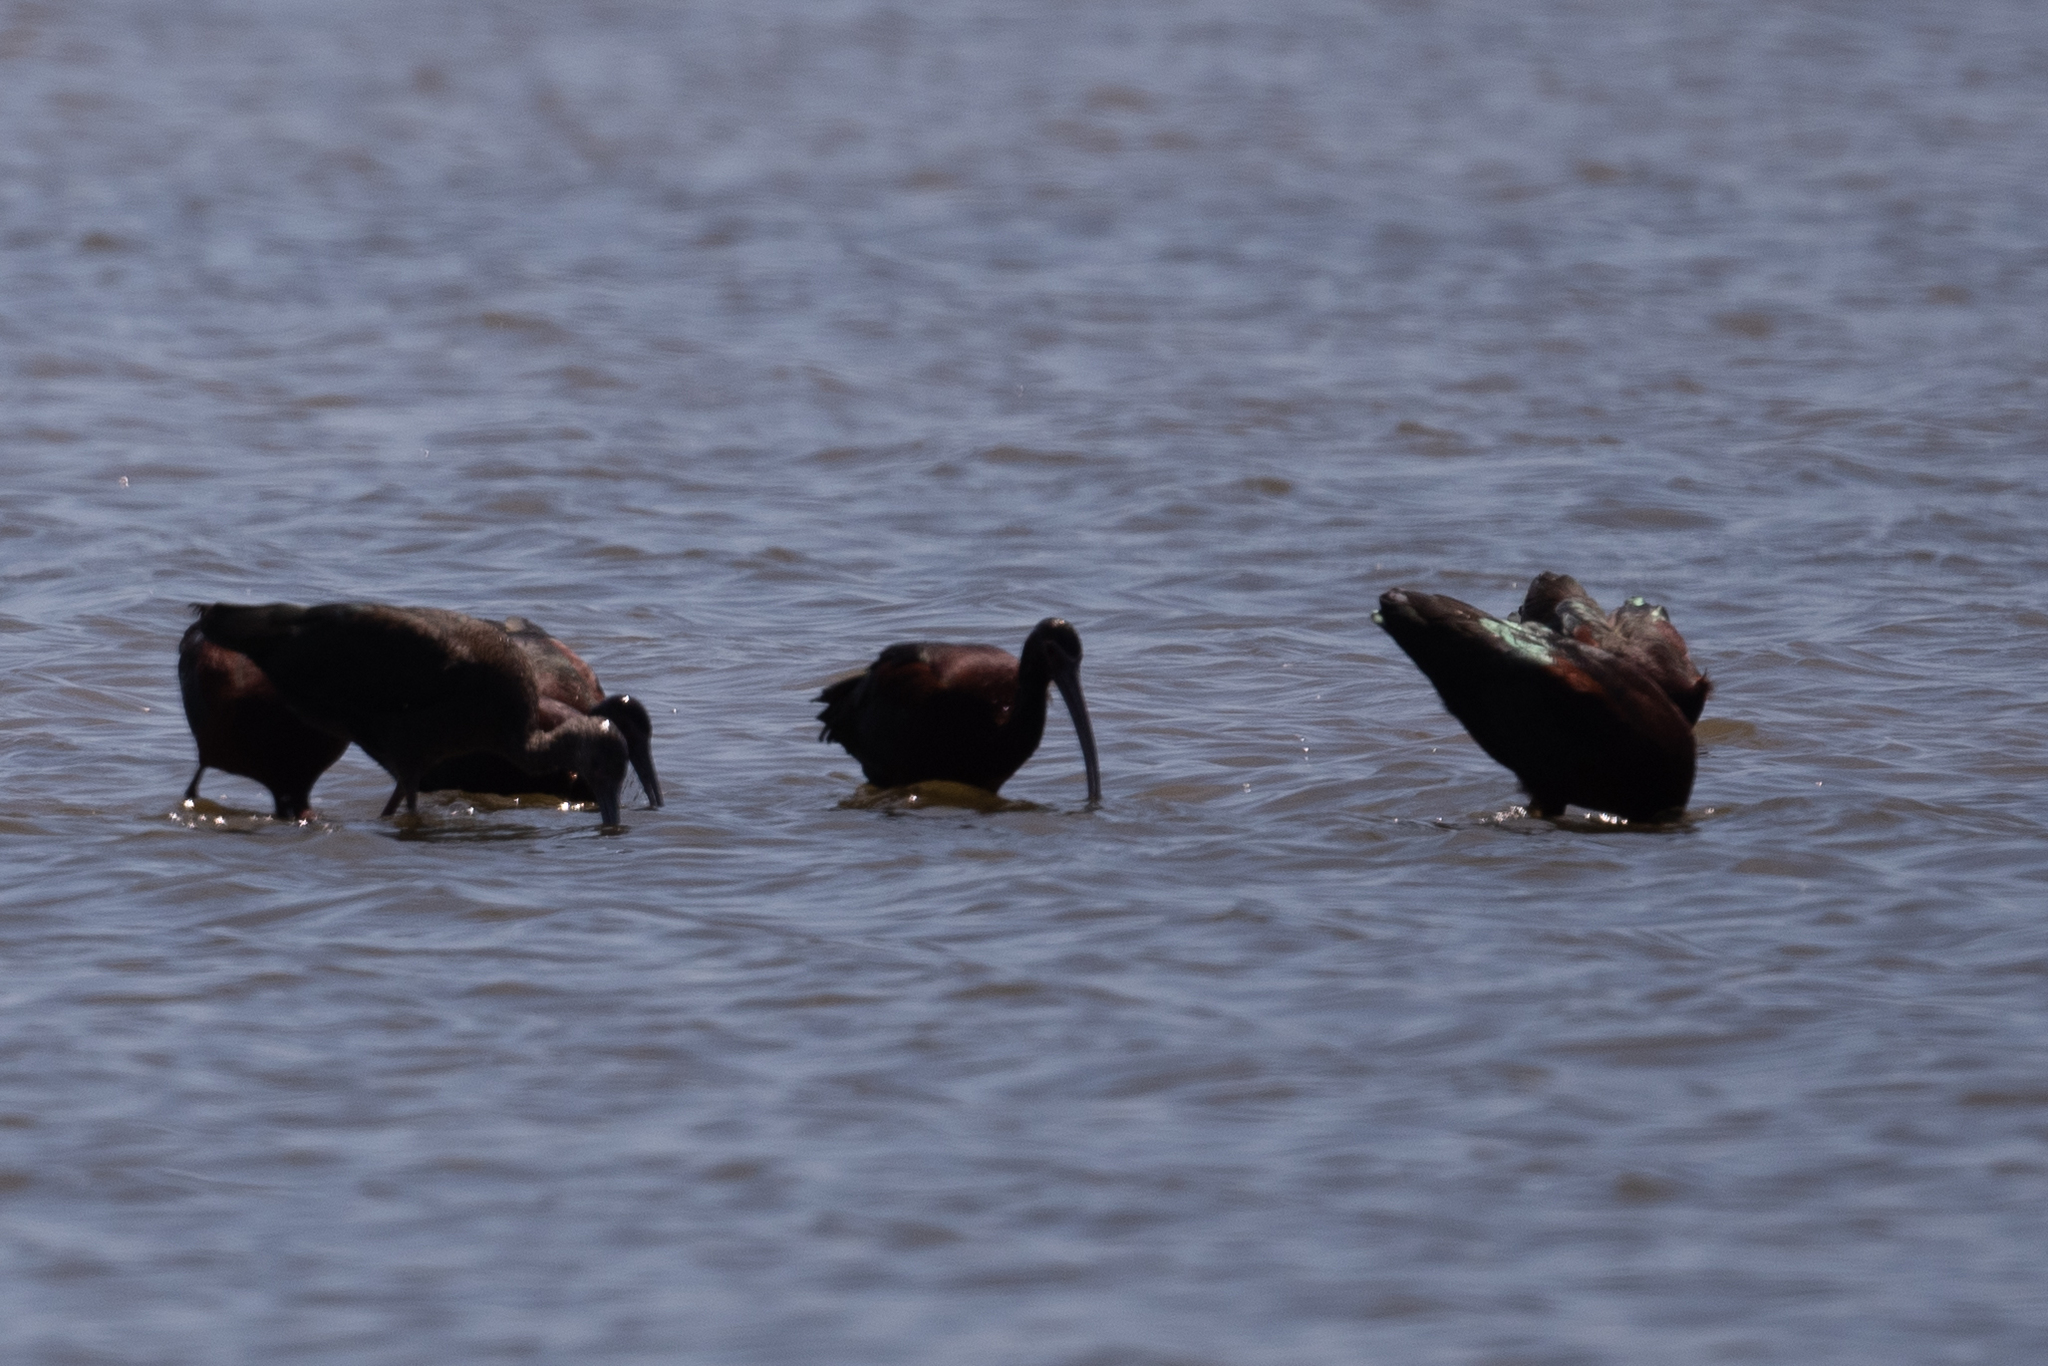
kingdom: Animalia
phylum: Chordata
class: Aves
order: Pelecaniformes
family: Threskiornithidae
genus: Plegadis
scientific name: Plegadis chihi
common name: White-faced ibis
